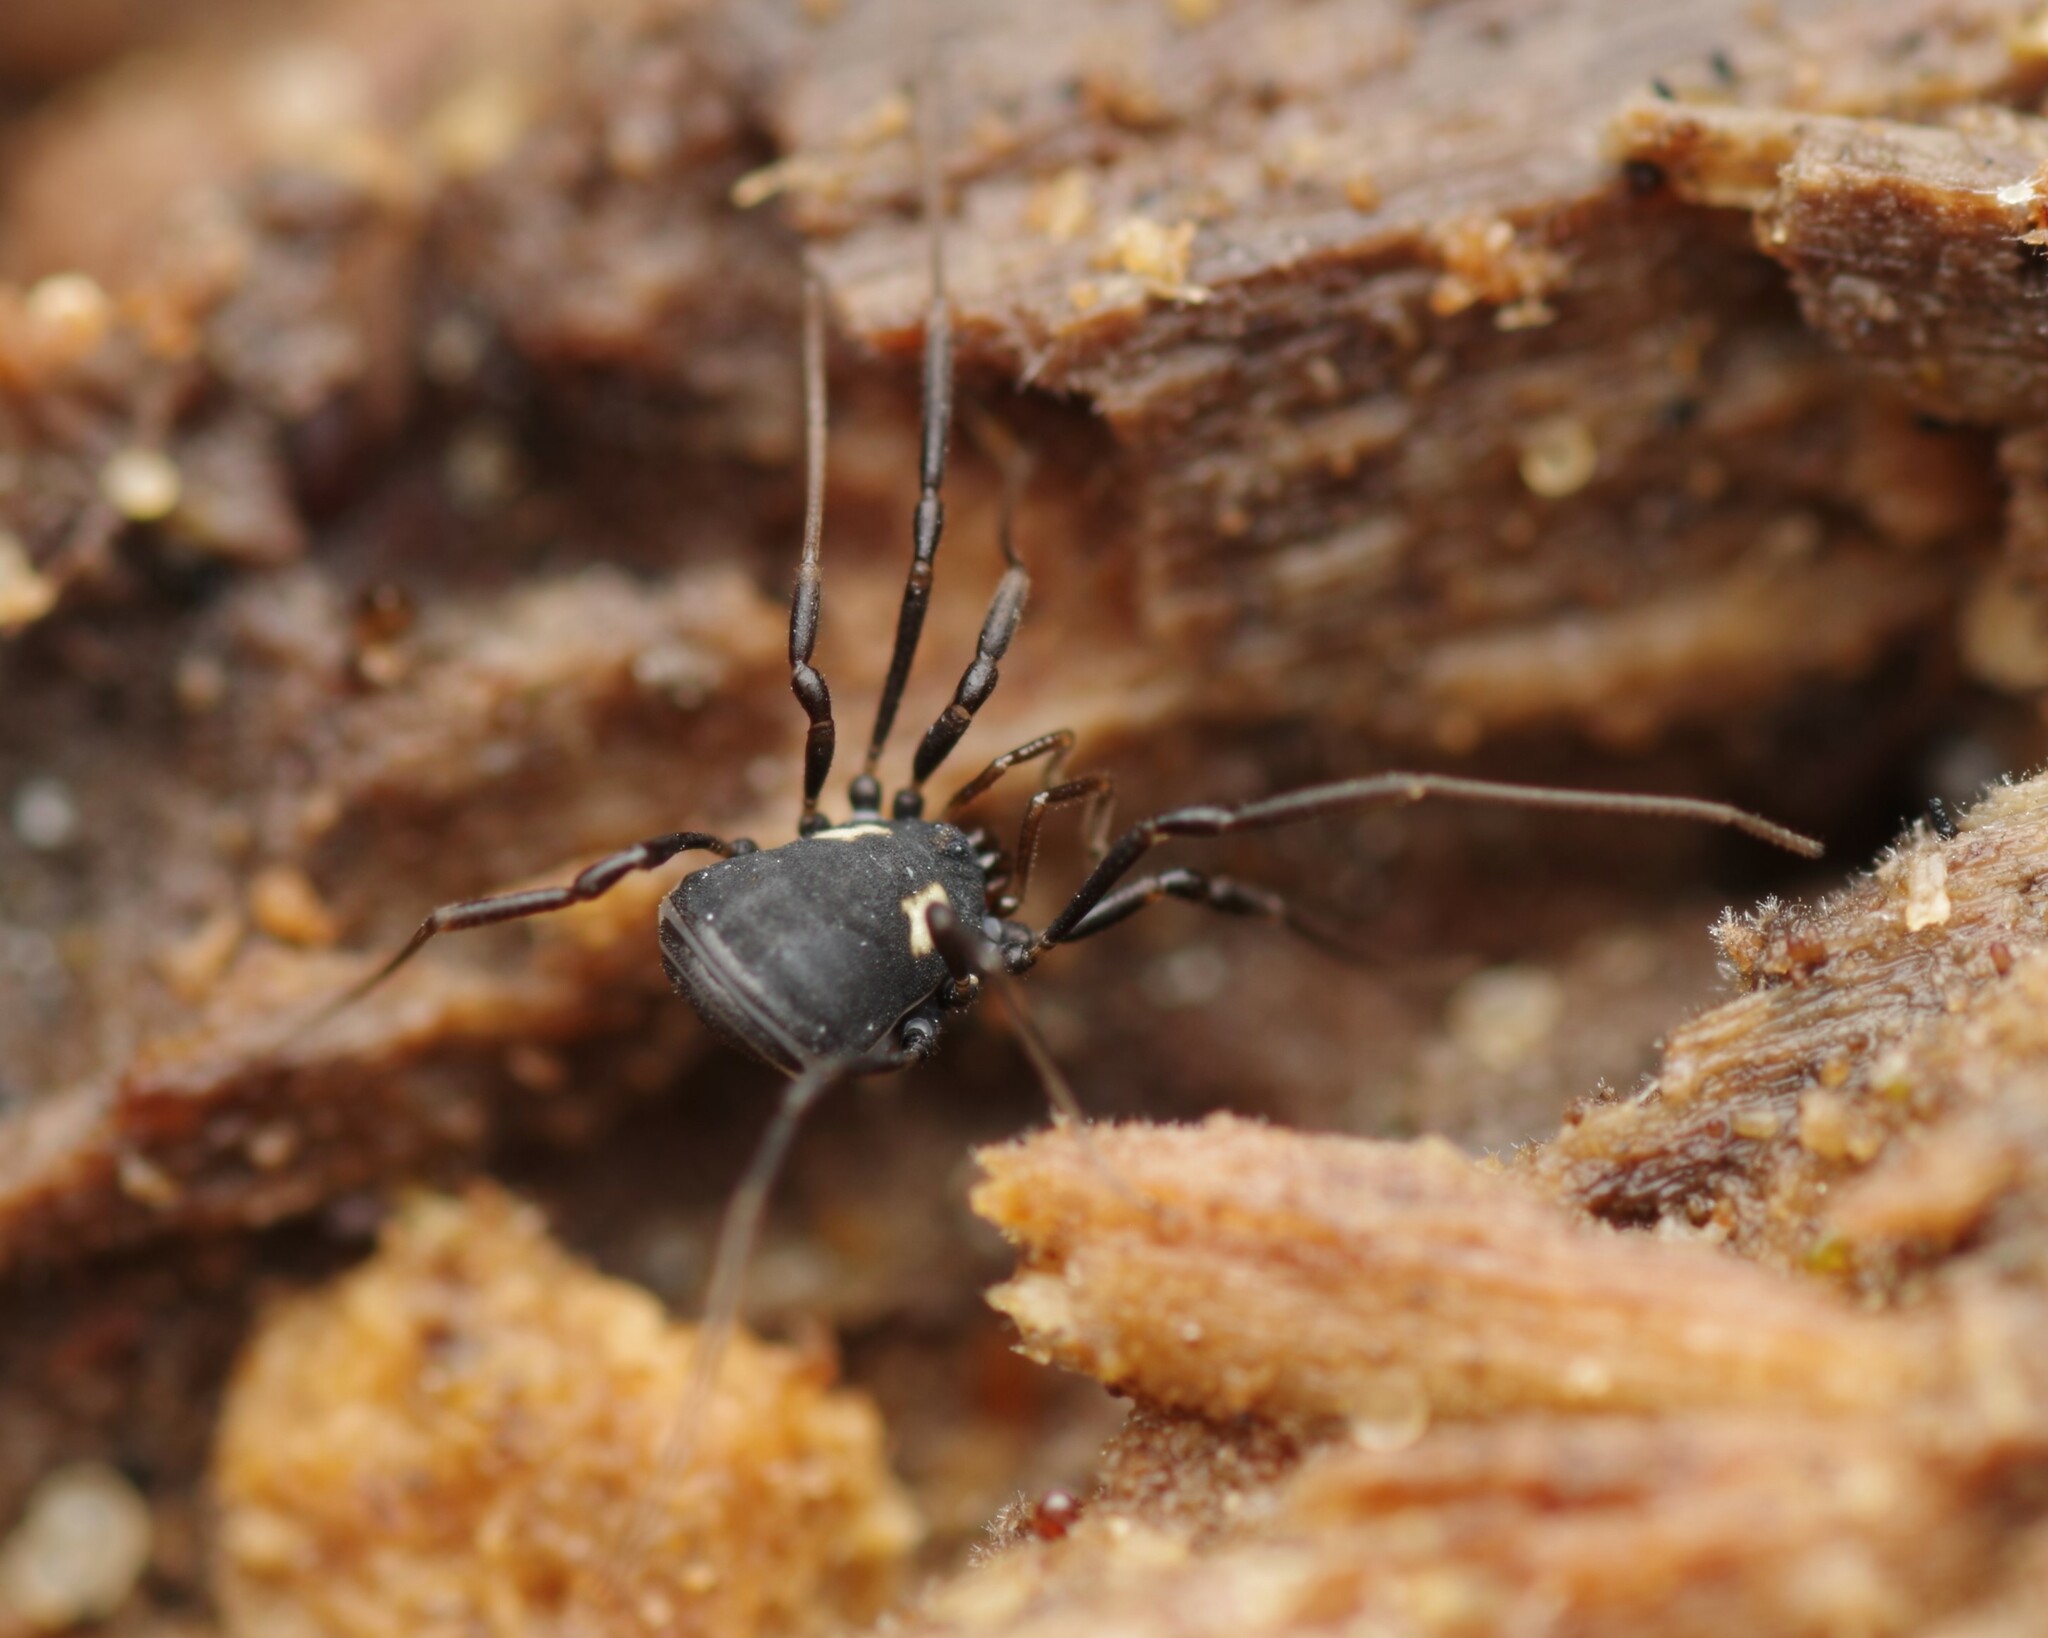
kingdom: Animalia
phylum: Arthropoda
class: Arachnida
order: Opiliones
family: Nemastomatidae
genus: Nemastoma
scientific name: Nemastoma bimaculatum
